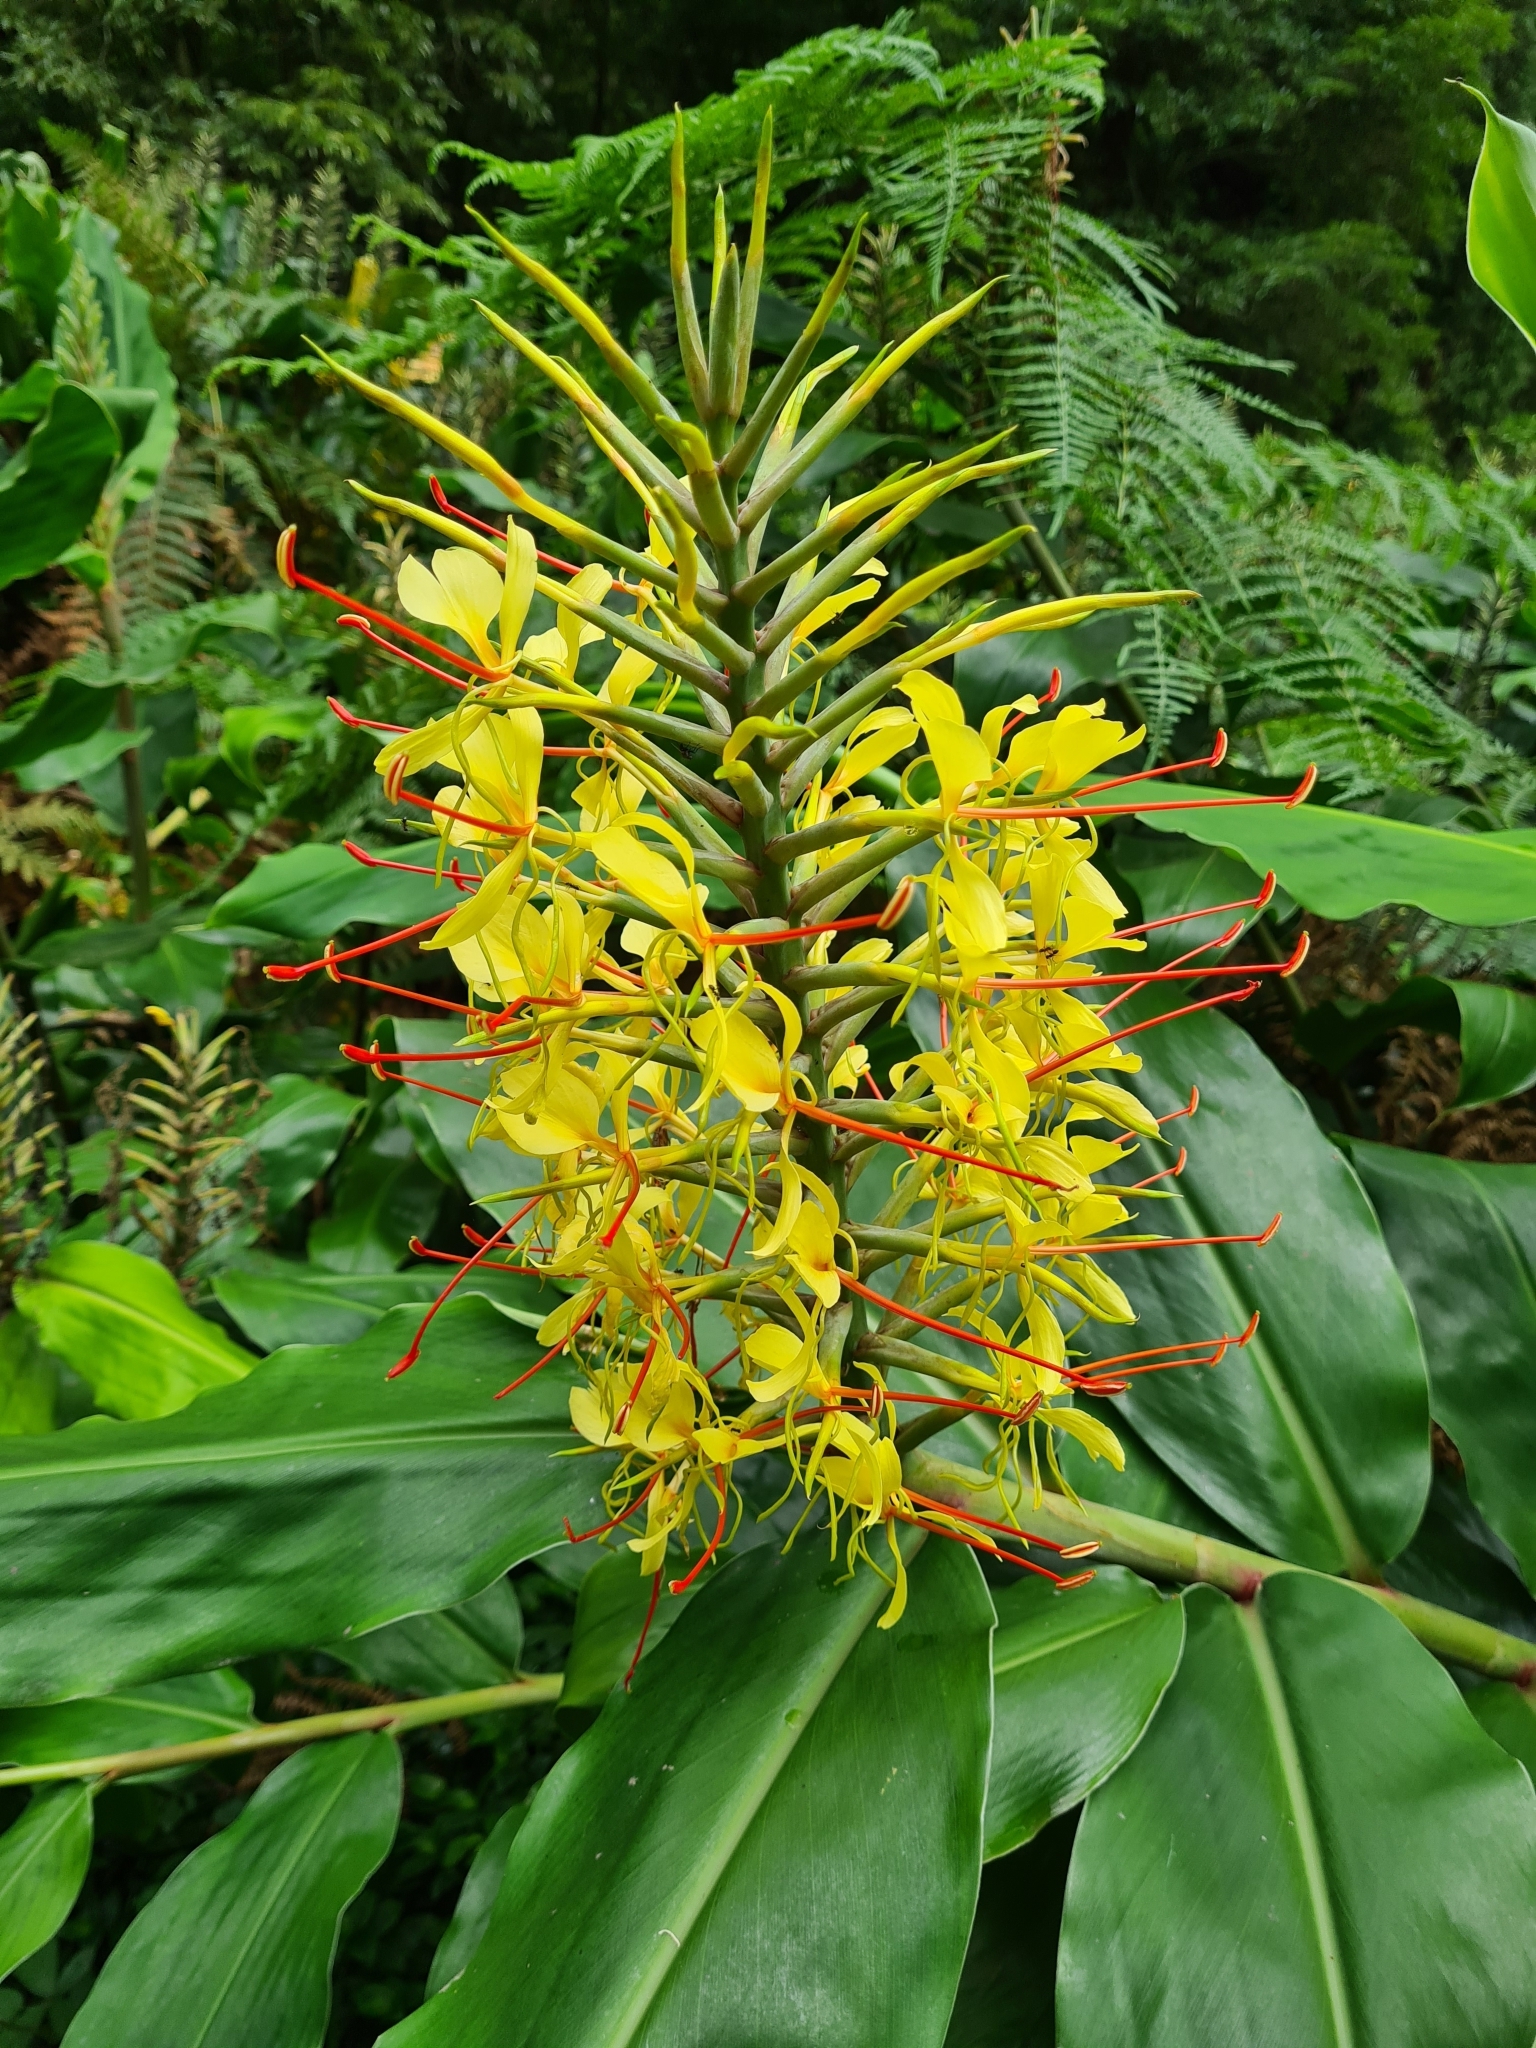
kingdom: Plantae
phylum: Tracheophyta
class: Liliopsida
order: Zingiberales
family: Zingiberaceae
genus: Hedychium
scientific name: Hedychium gardnerianum
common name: Himalayan ginger
